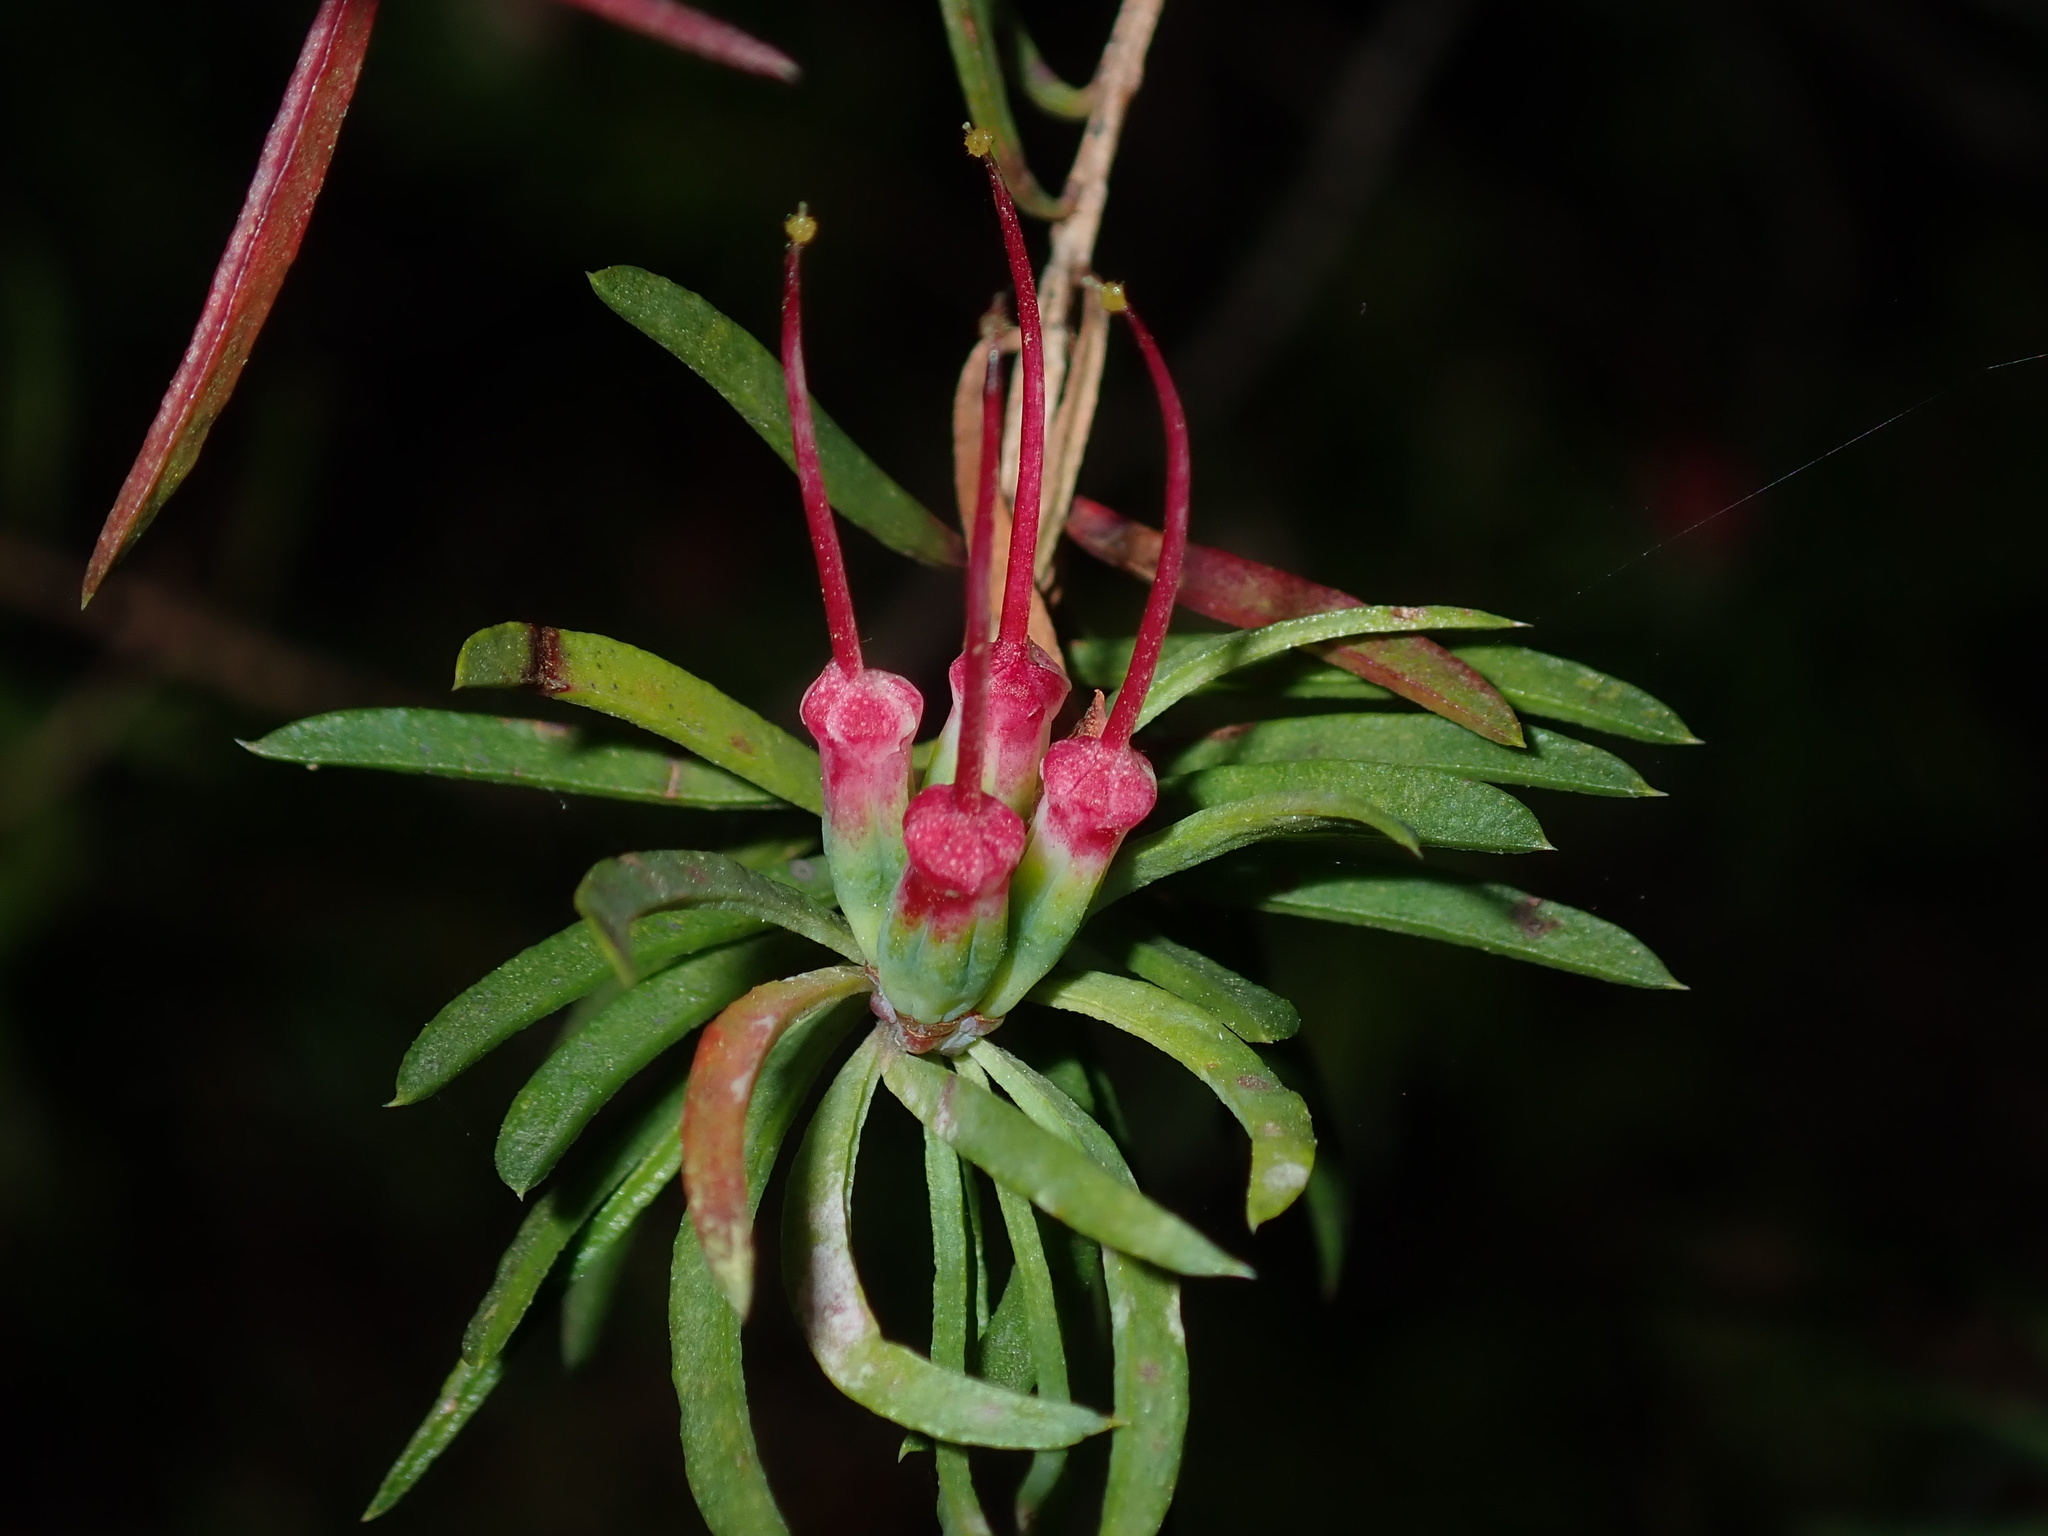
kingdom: Plantae
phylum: Tracheophyta
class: Magnoliopsida
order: Myrtales
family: Myrtaceae
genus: Darwinia
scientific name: Darwinia procera
